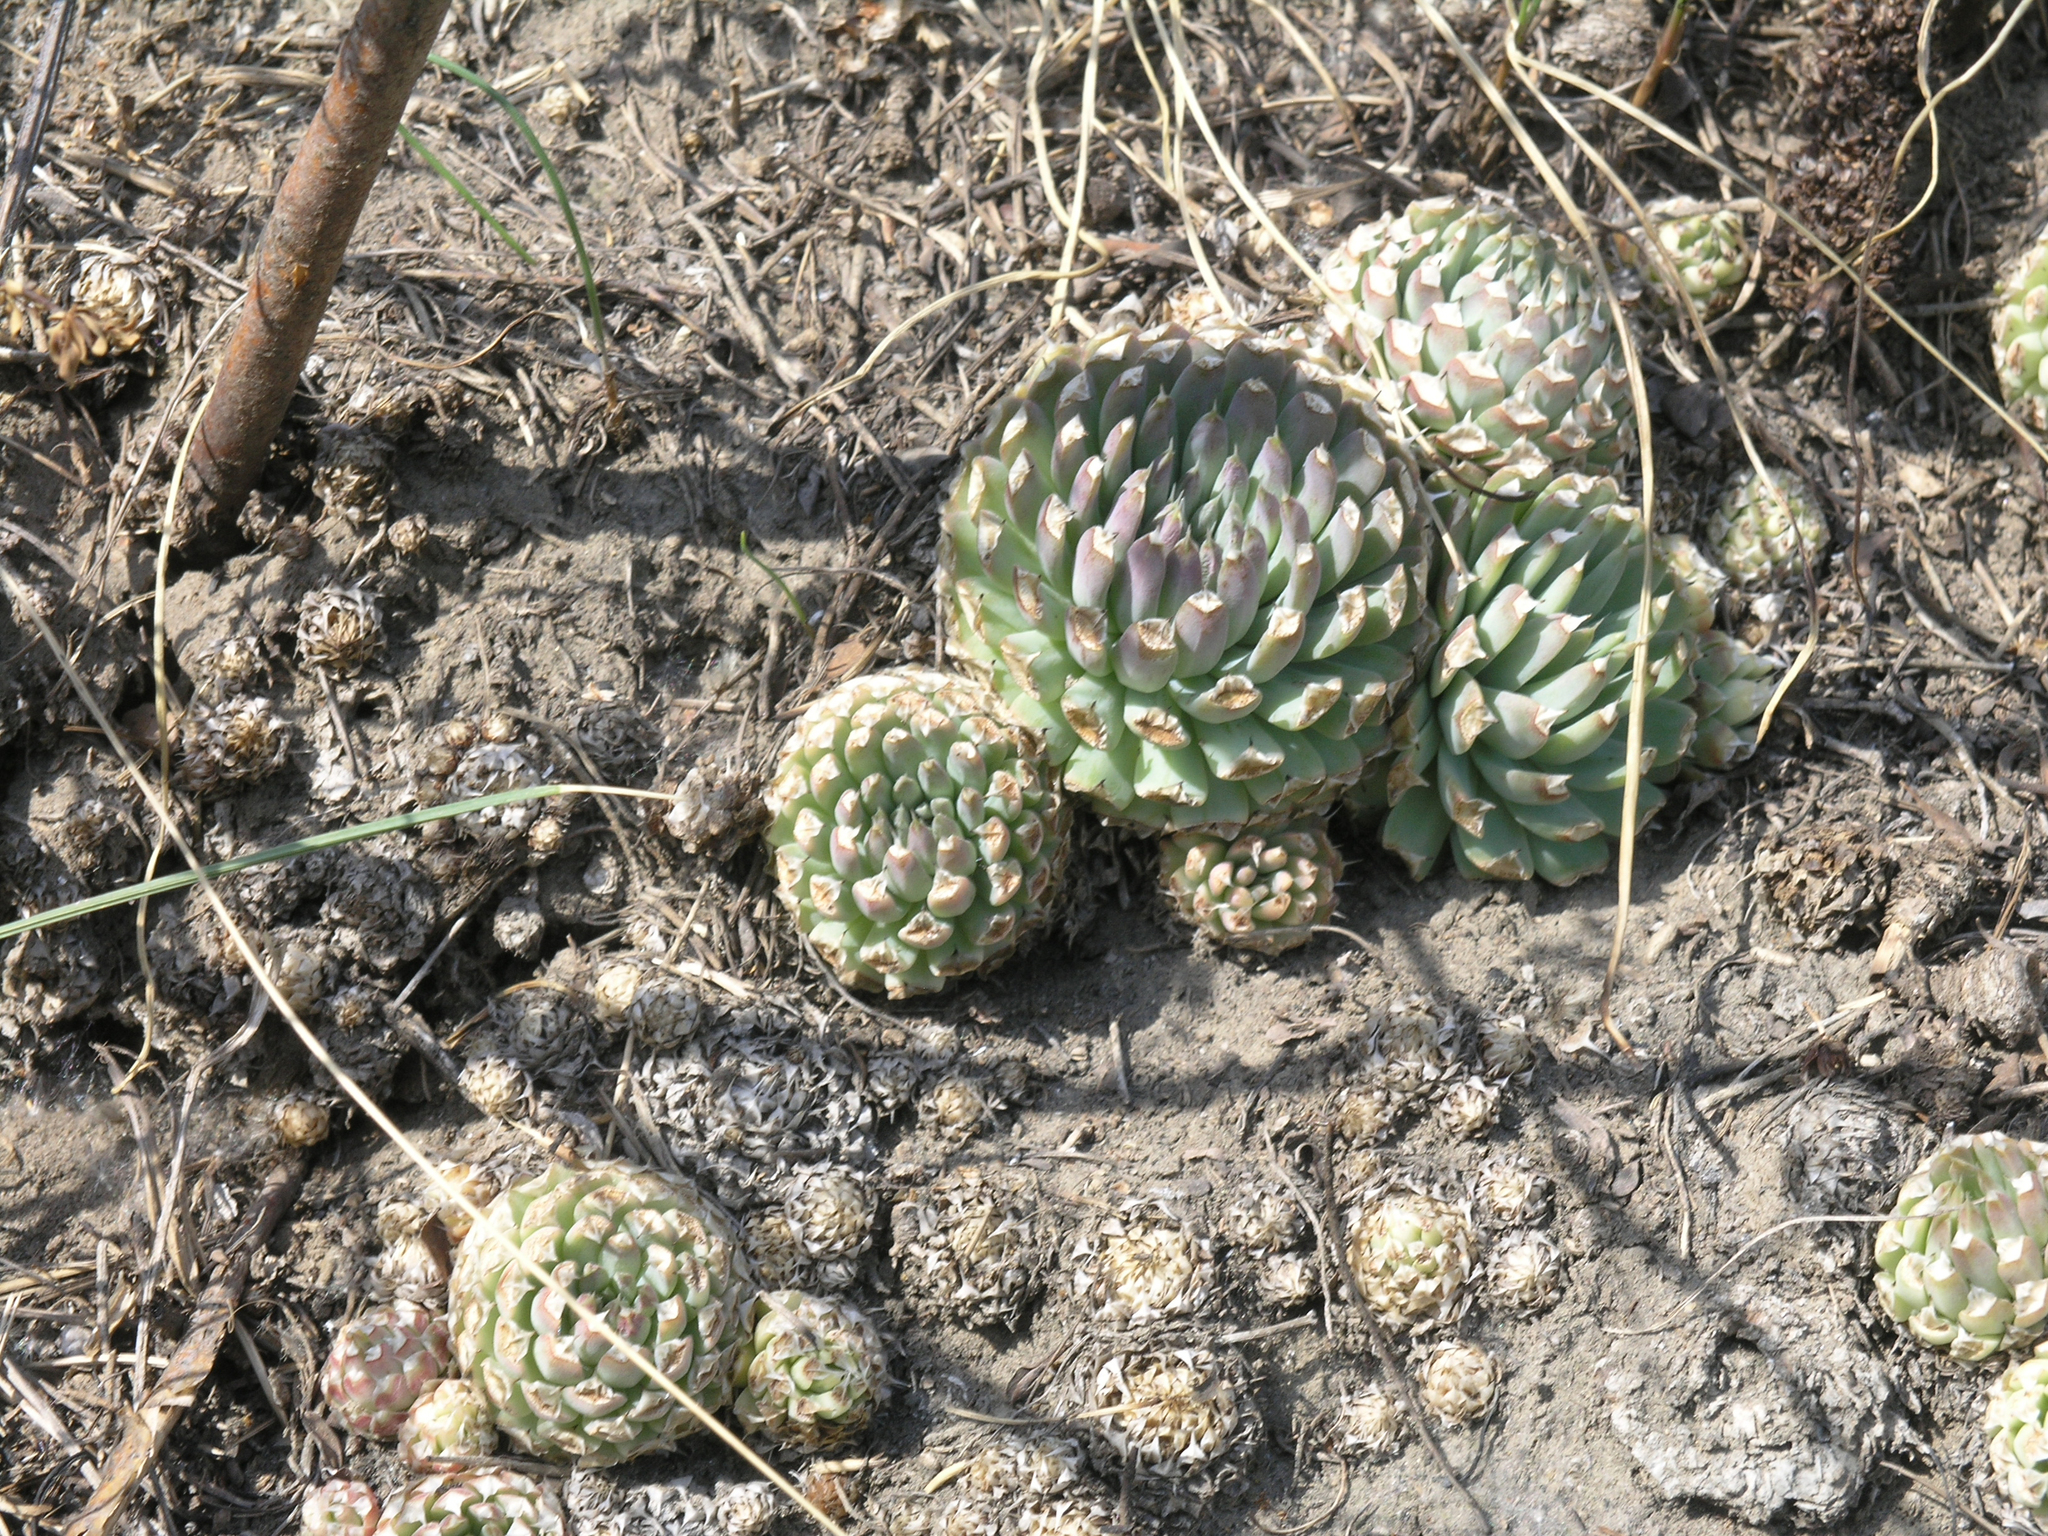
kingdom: Plantae
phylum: Tracheophyta
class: Magnoliopsida
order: Saxifragales
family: Crassulaceae
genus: Orostachys
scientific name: Orostachys spinosa
